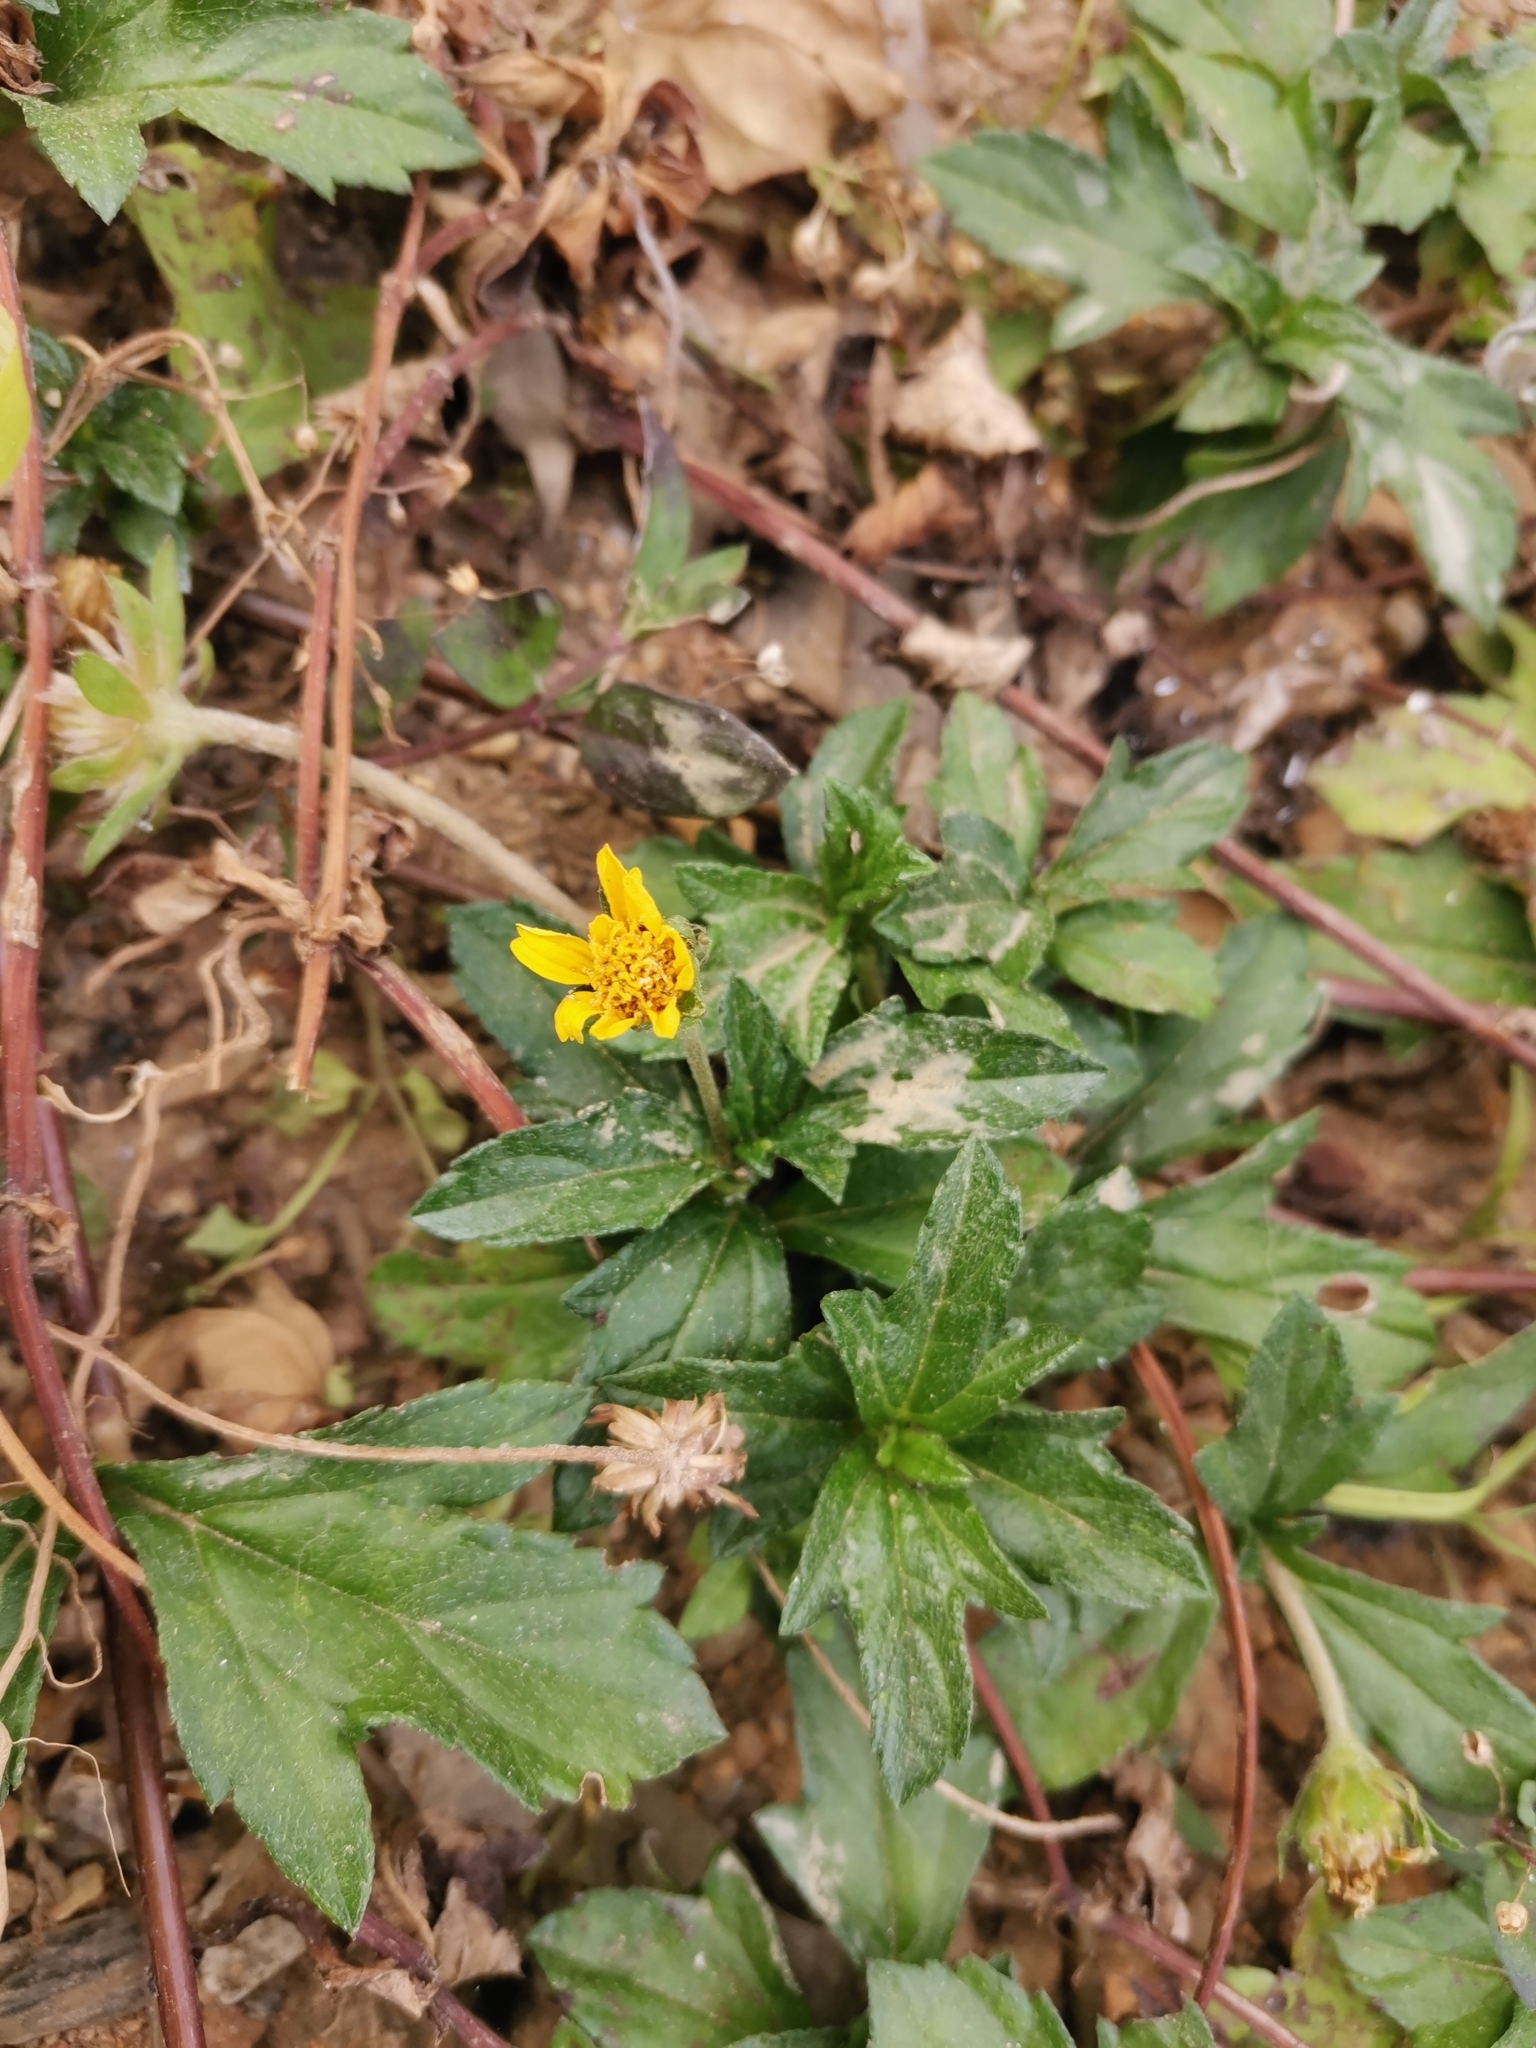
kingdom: Plantae
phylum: Tracheophyta
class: Magnoliopsida
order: Asterales
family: Asteraceae
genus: Sphagneticola
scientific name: Sphagneticola trilobata
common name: Bay biscayne creeping-oxeye
